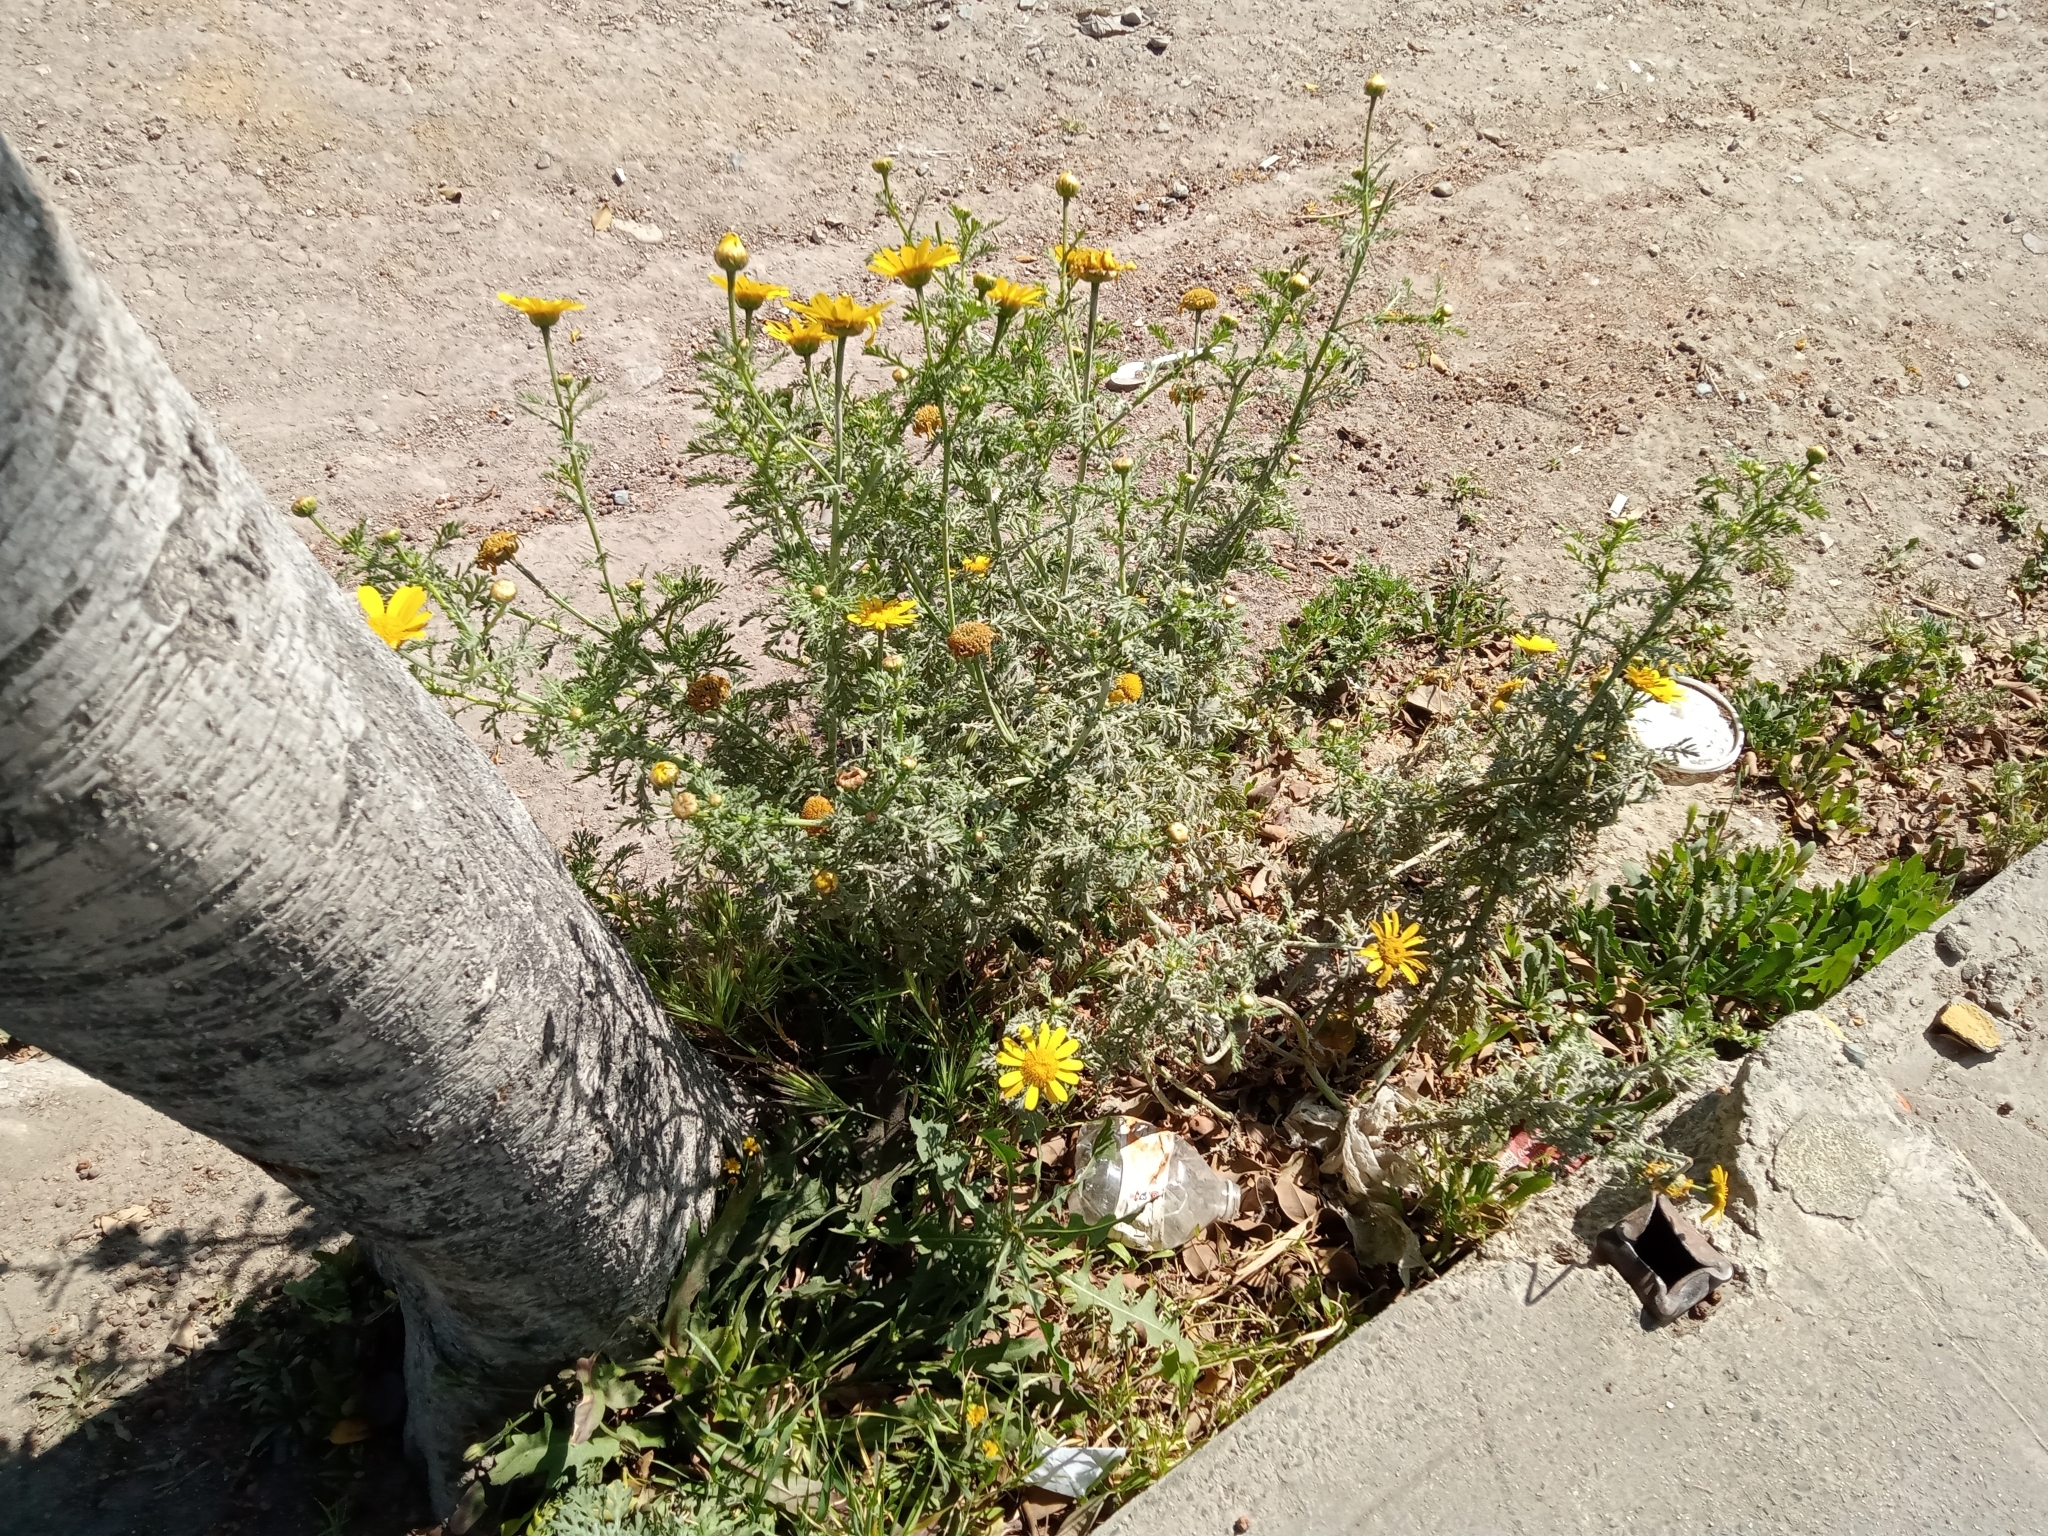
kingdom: Plantae
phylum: Tracheophyta
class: Magnoliopsida
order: Asterales
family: Asteraceae
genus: Glebionis
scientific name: Glebionis coronaria
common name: Crowndaisy
